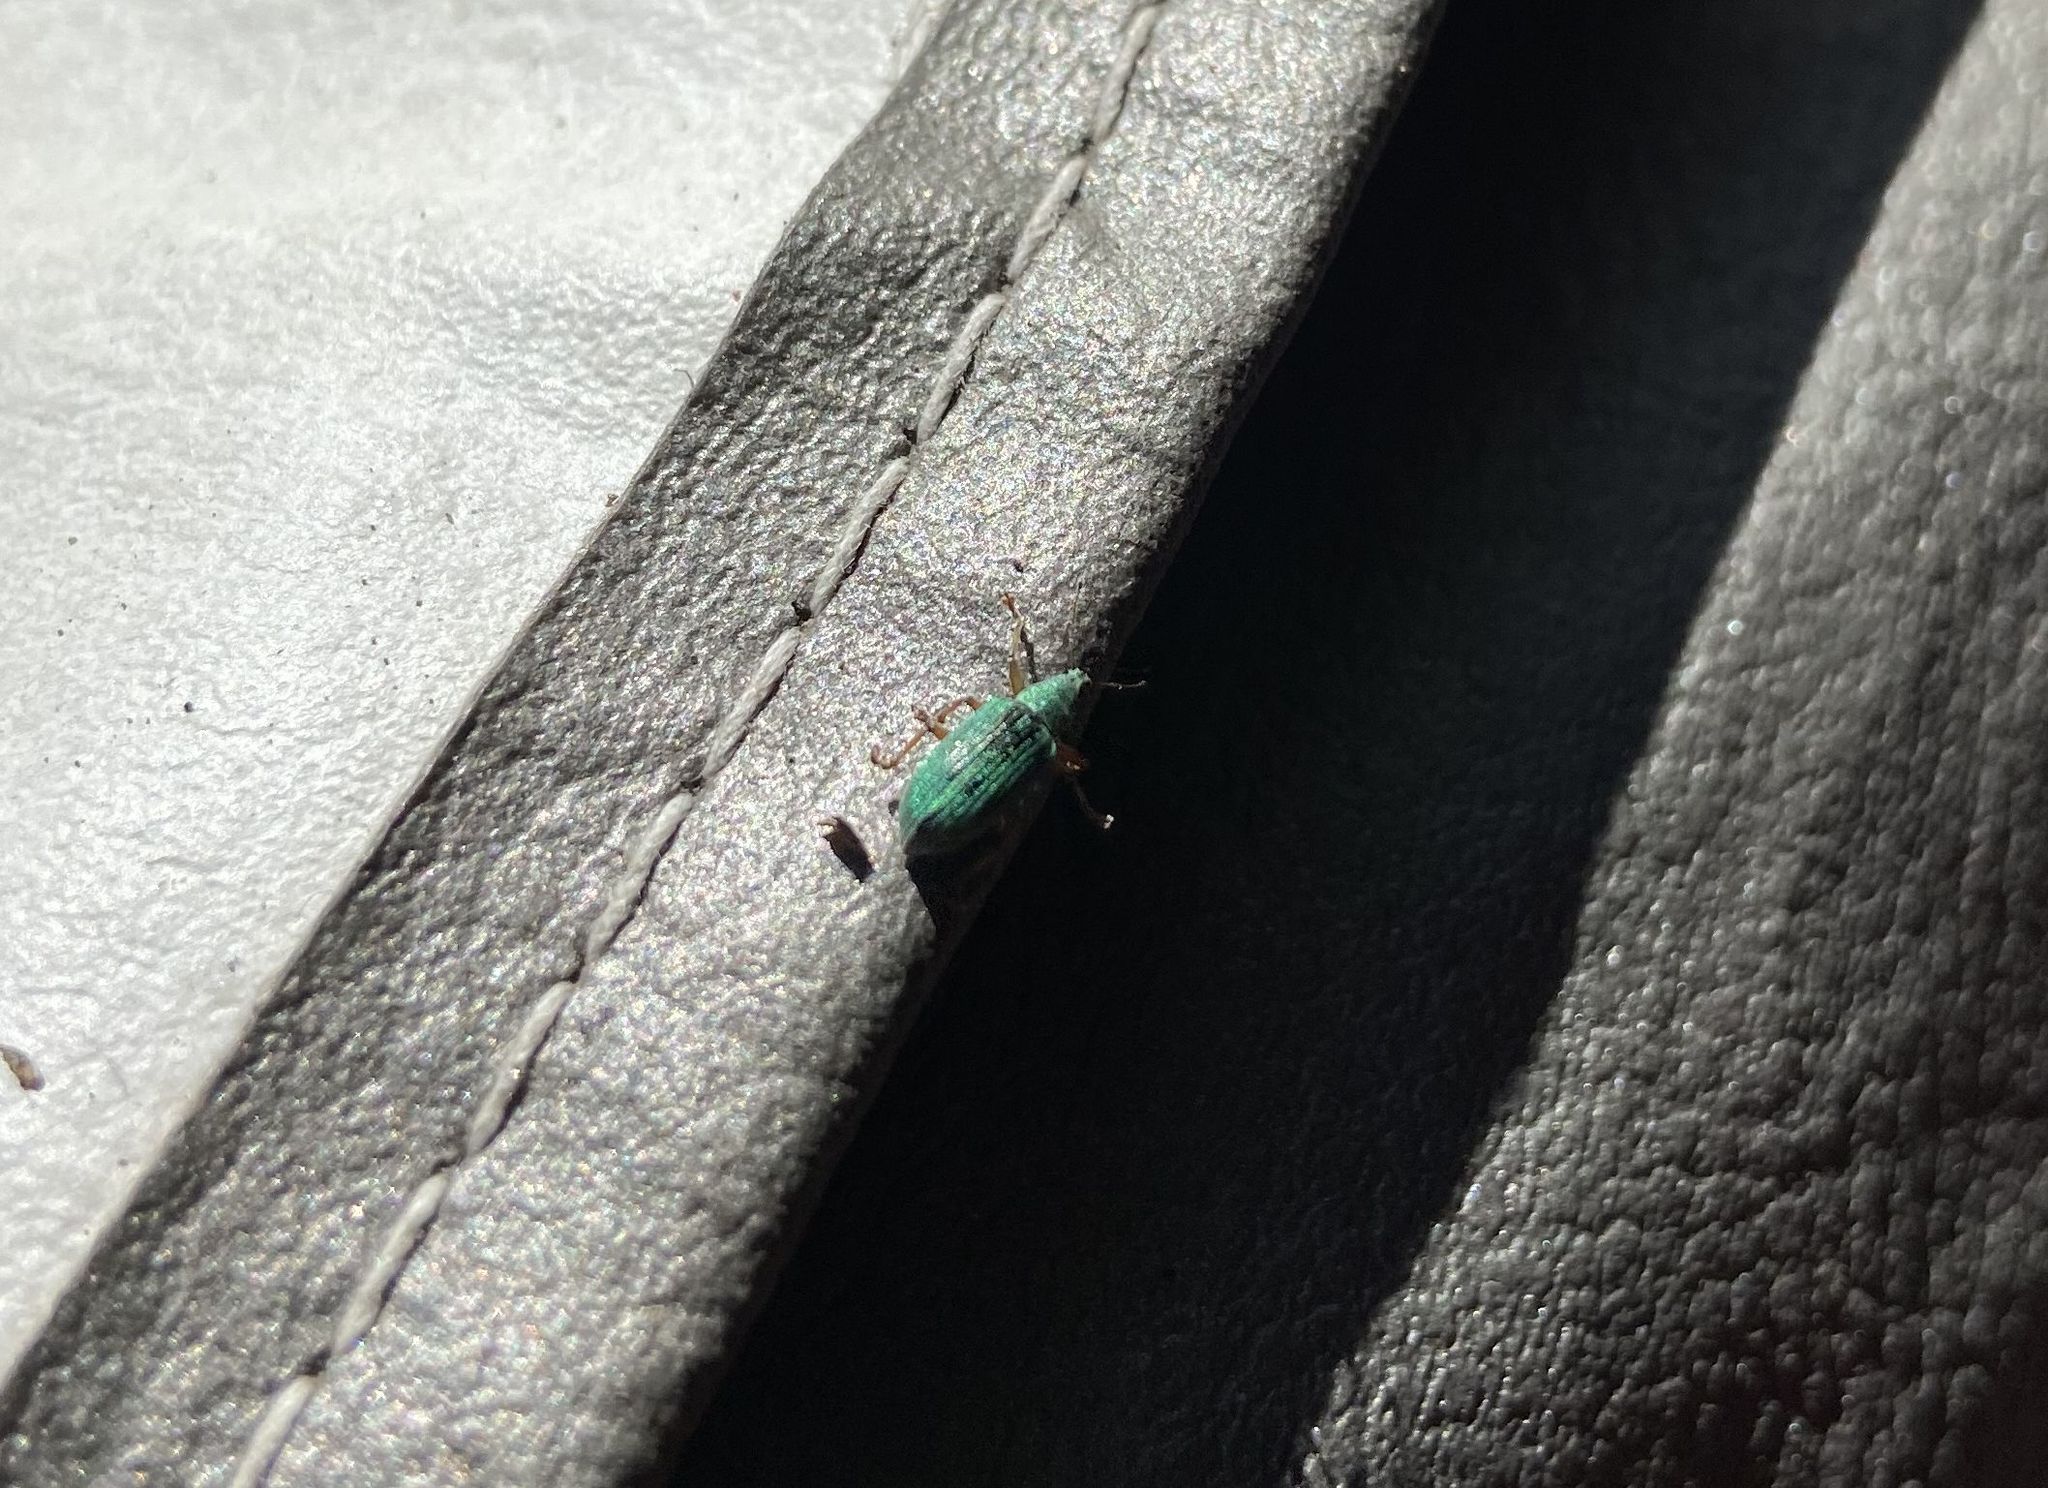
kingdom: Animalia
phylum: Arthropoda
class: Insecta
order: Coleoptera
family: Curculionidae
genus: Polydrusus
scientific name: Polydrusus formosus
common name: Weevil
